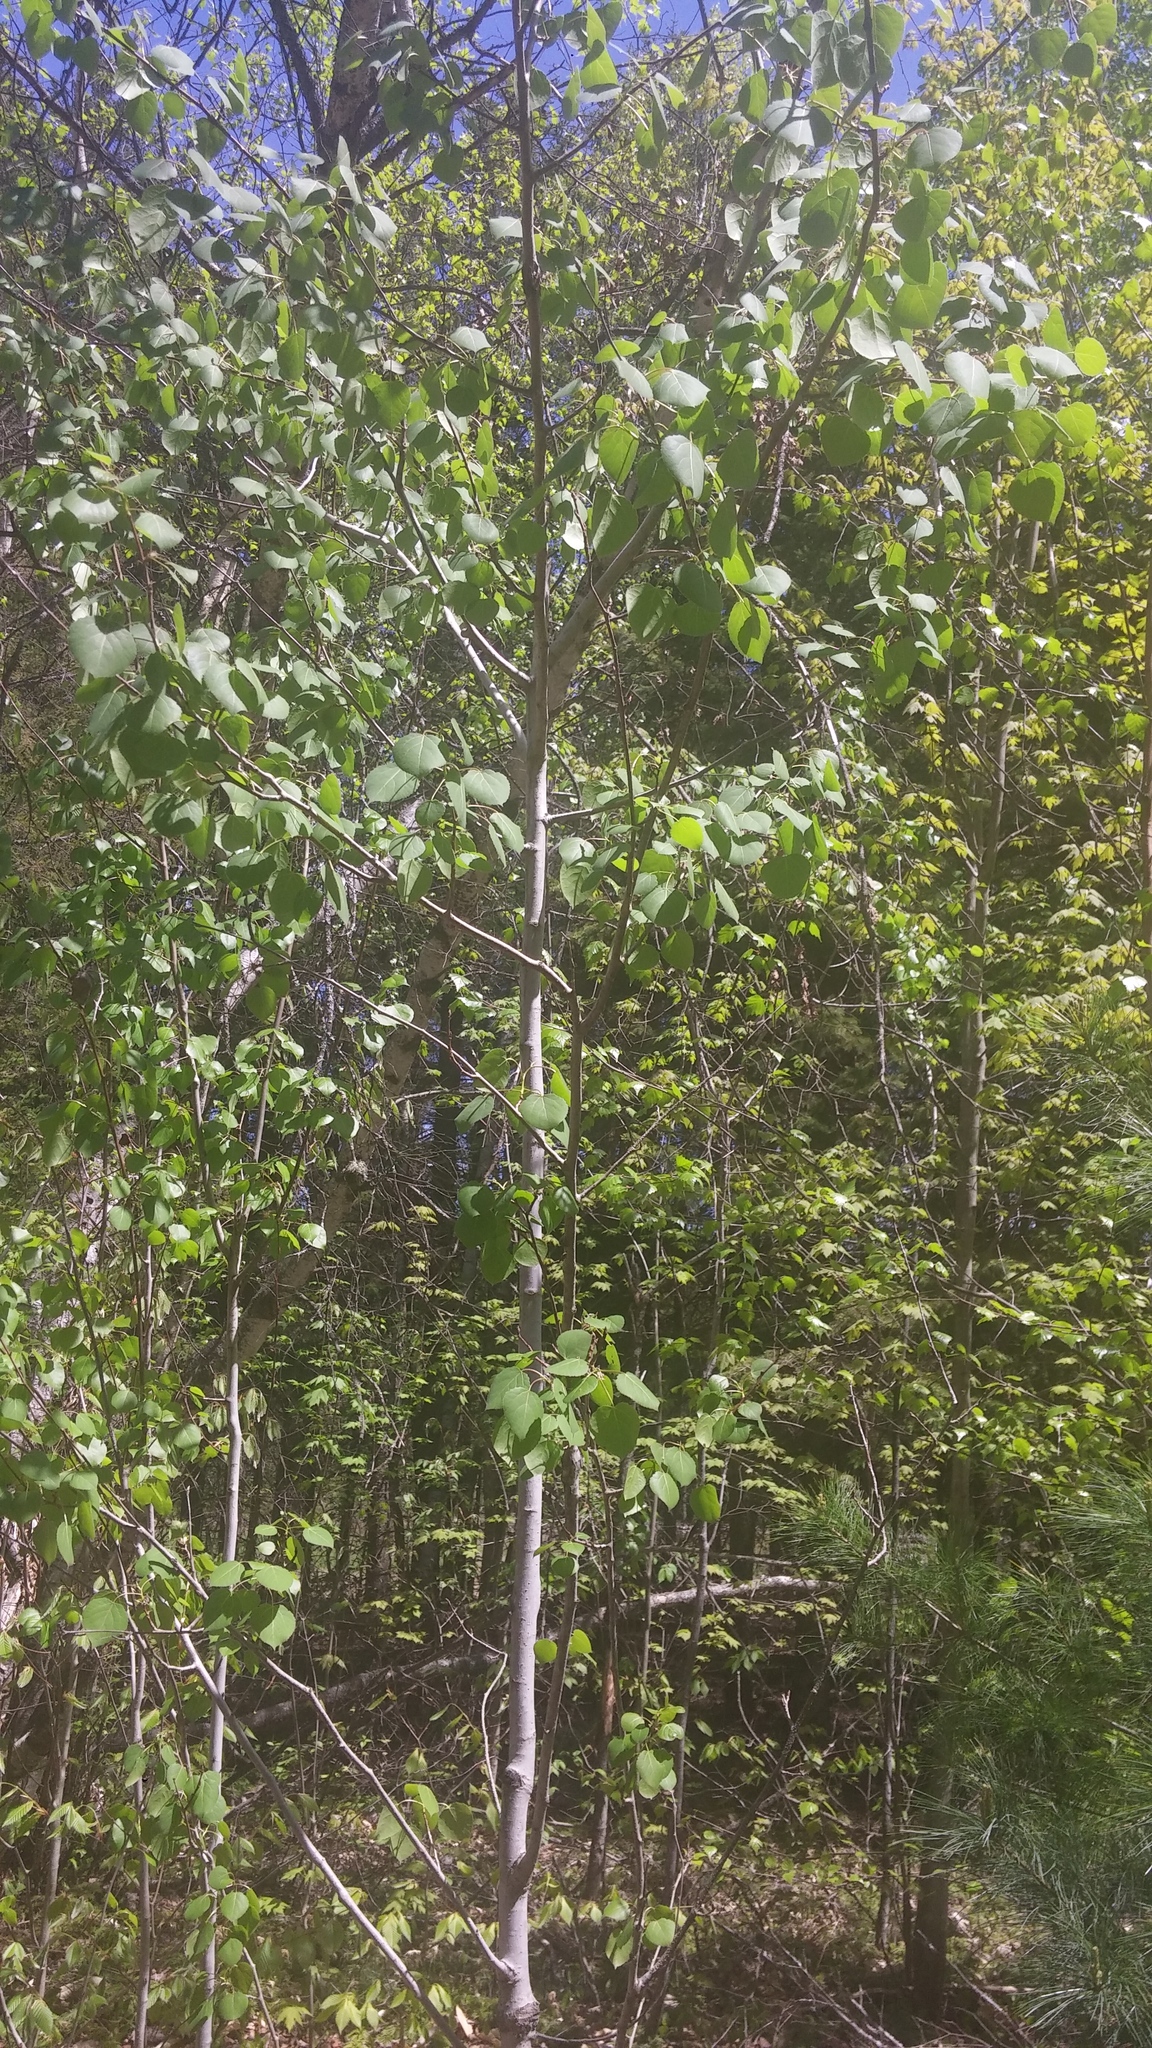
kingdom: Plantae
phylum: Tracheophyta
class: Magnoliopsida
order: Malpighiales
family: Salicaceae
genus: Populus
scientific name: Populus tremuloides
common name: Quaking aspen
